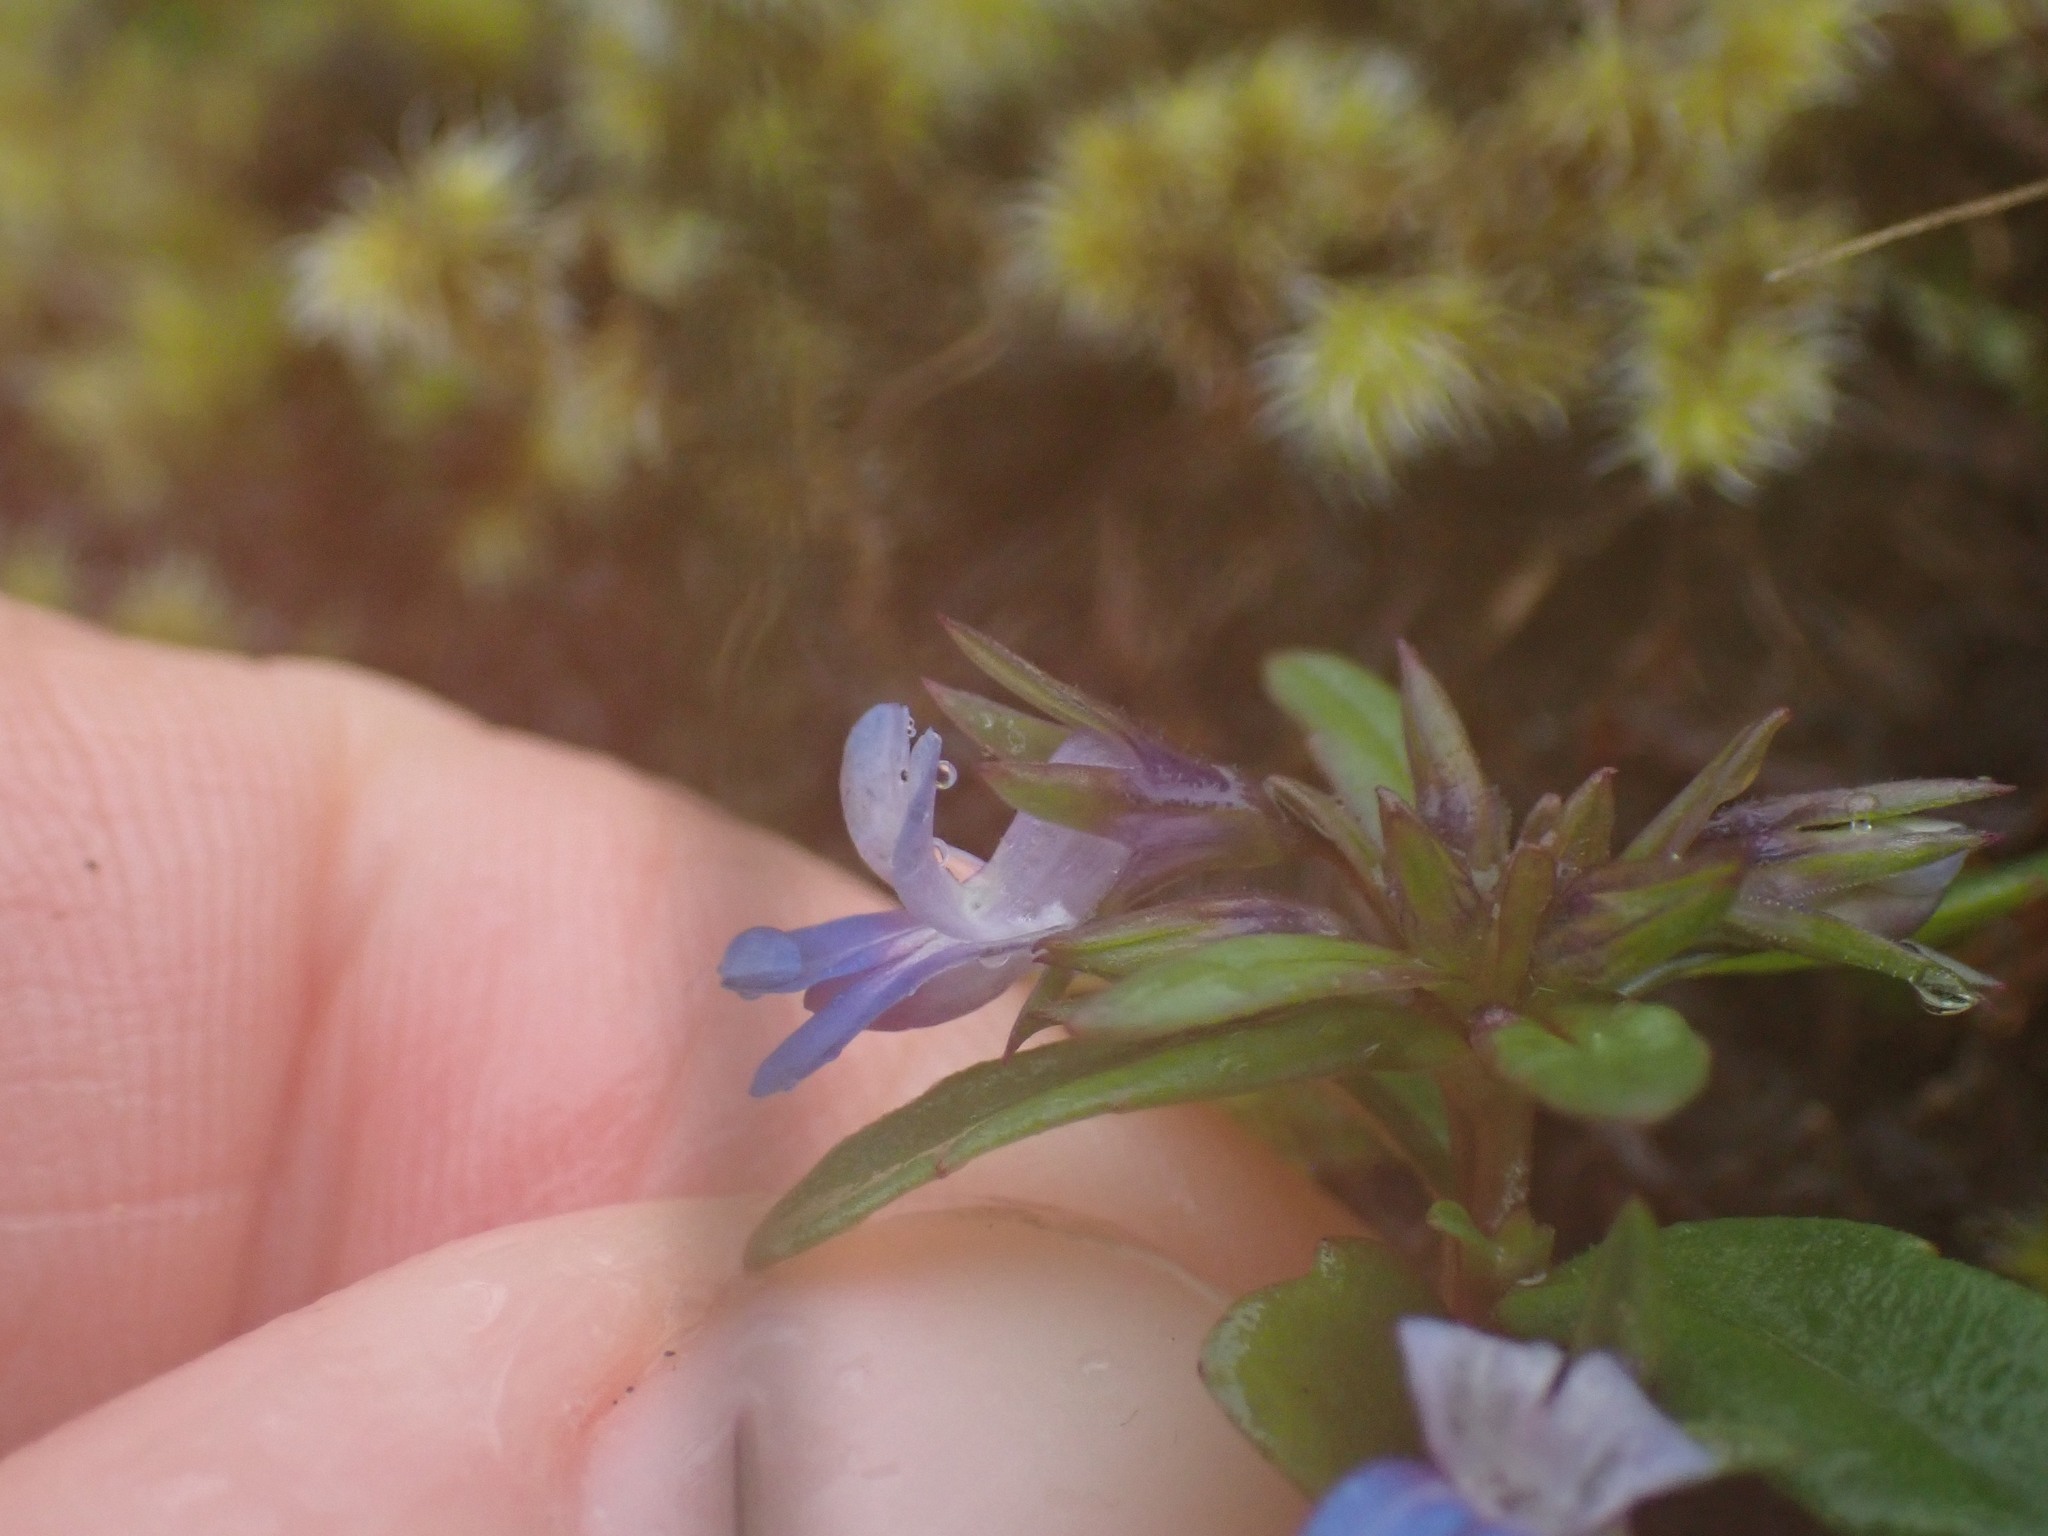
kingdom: Plantae
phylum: Tracheophyta
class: Magnoliopsida
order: Lamiales
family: Plantaginaceae
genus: Collinsia
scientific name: Collinsia parviflora
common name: Blue-lips
